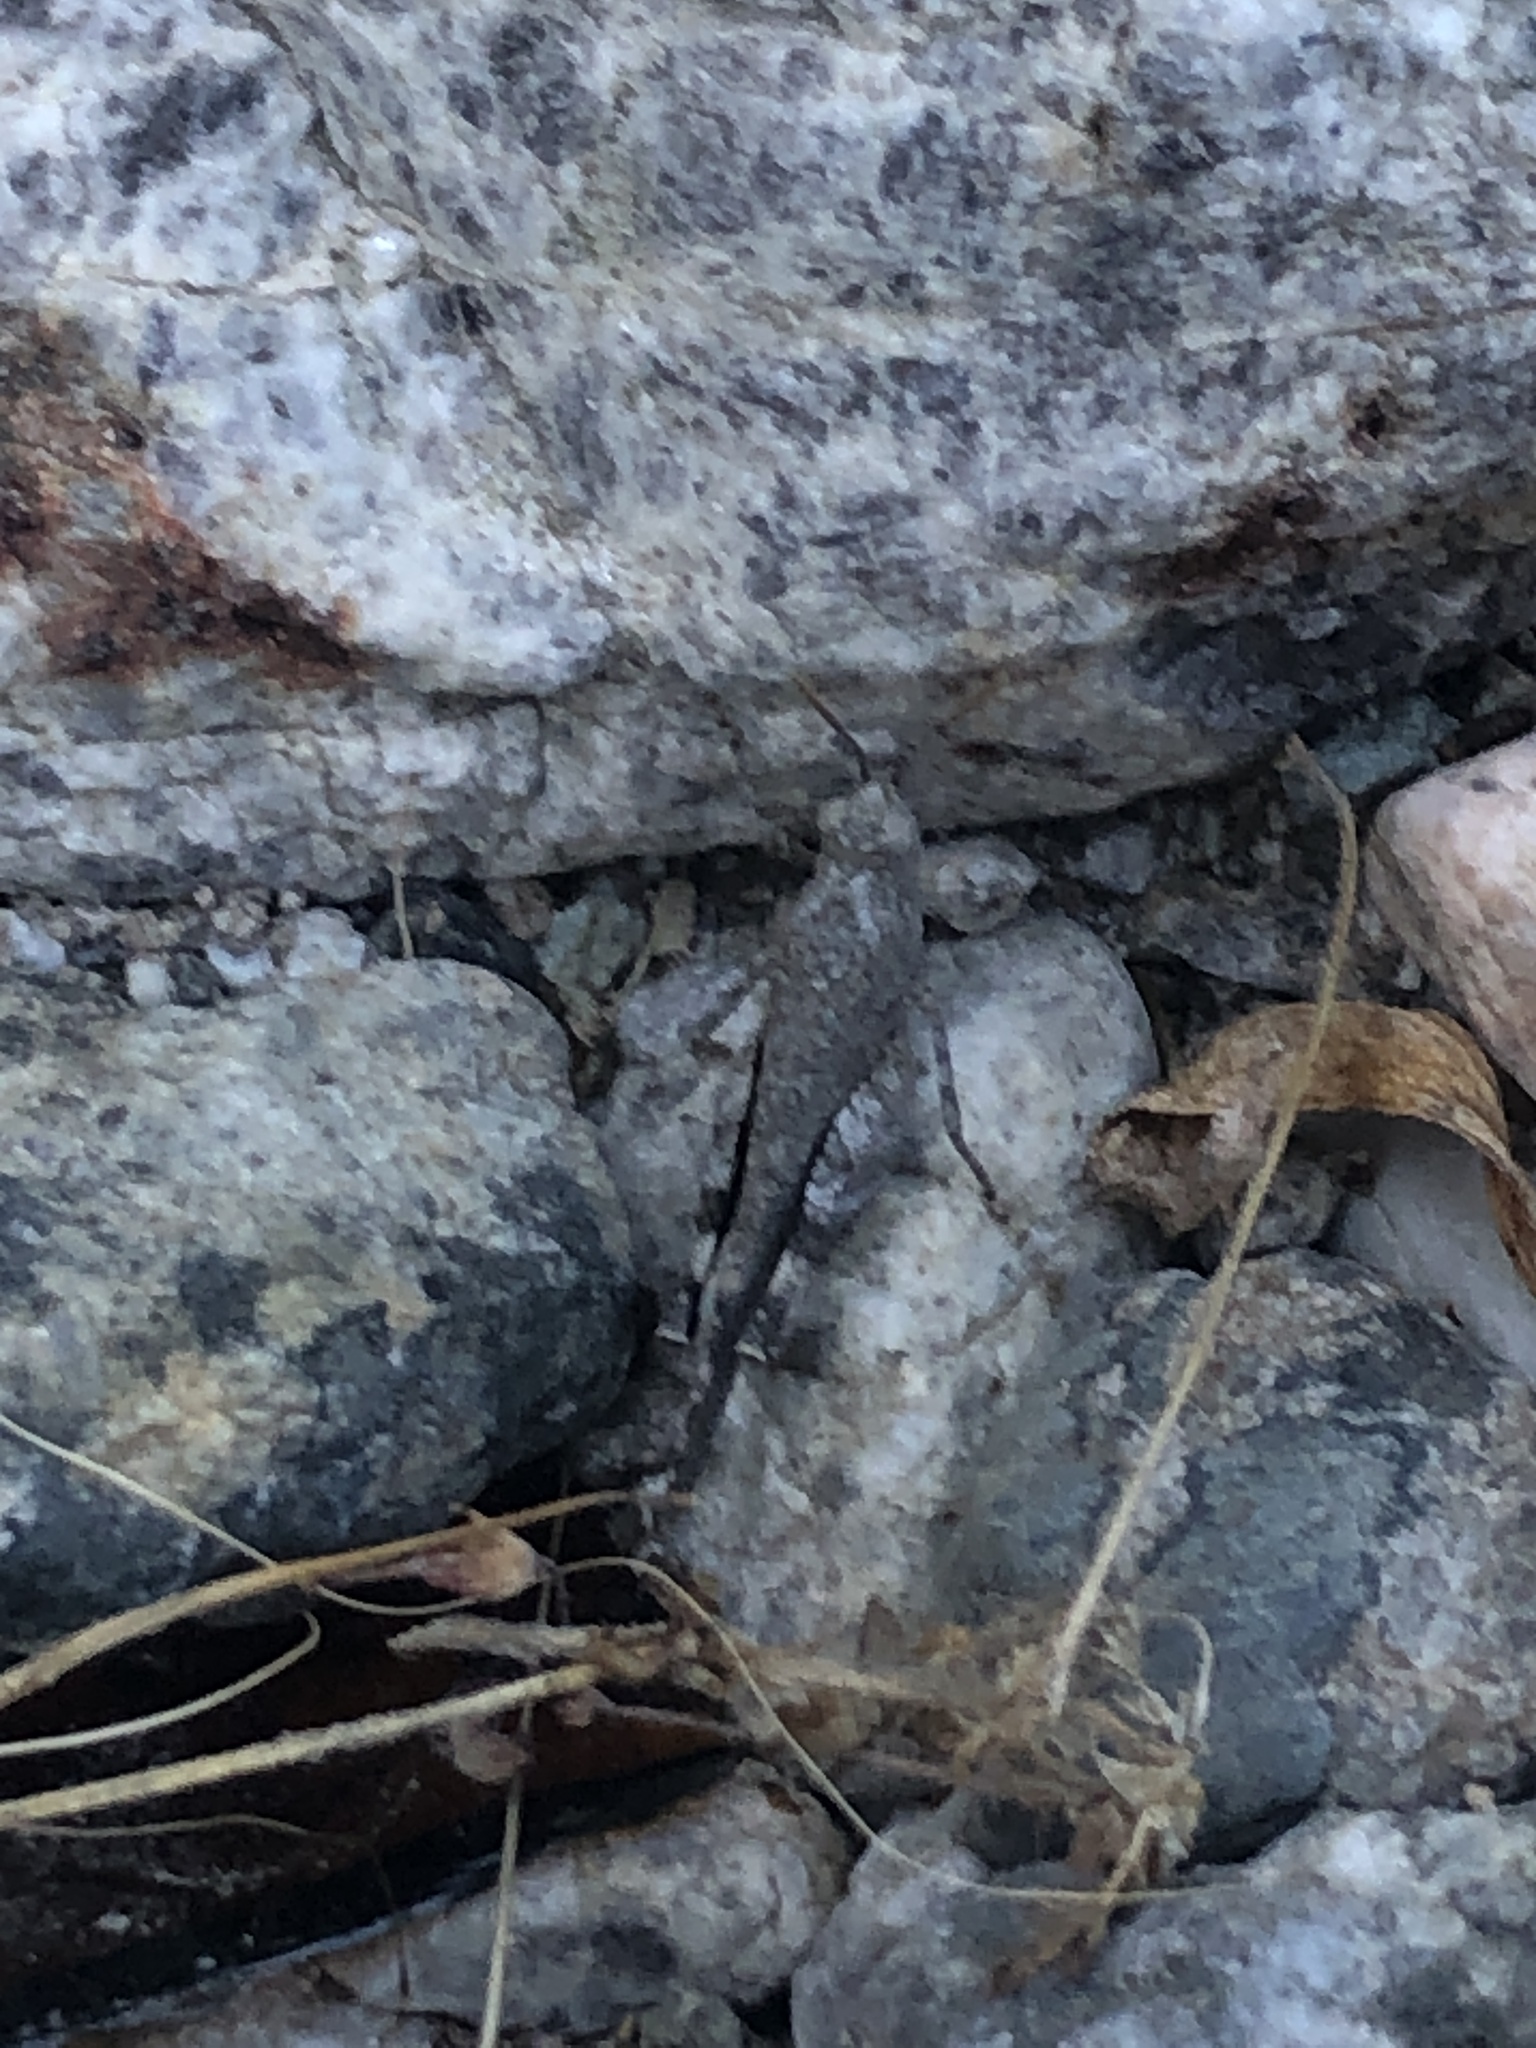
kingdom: Animalia
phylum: Arthropoda
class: Insecta
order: Orthoptera
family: Acrididae
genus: Lactista
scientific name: Lactista gibbosus
